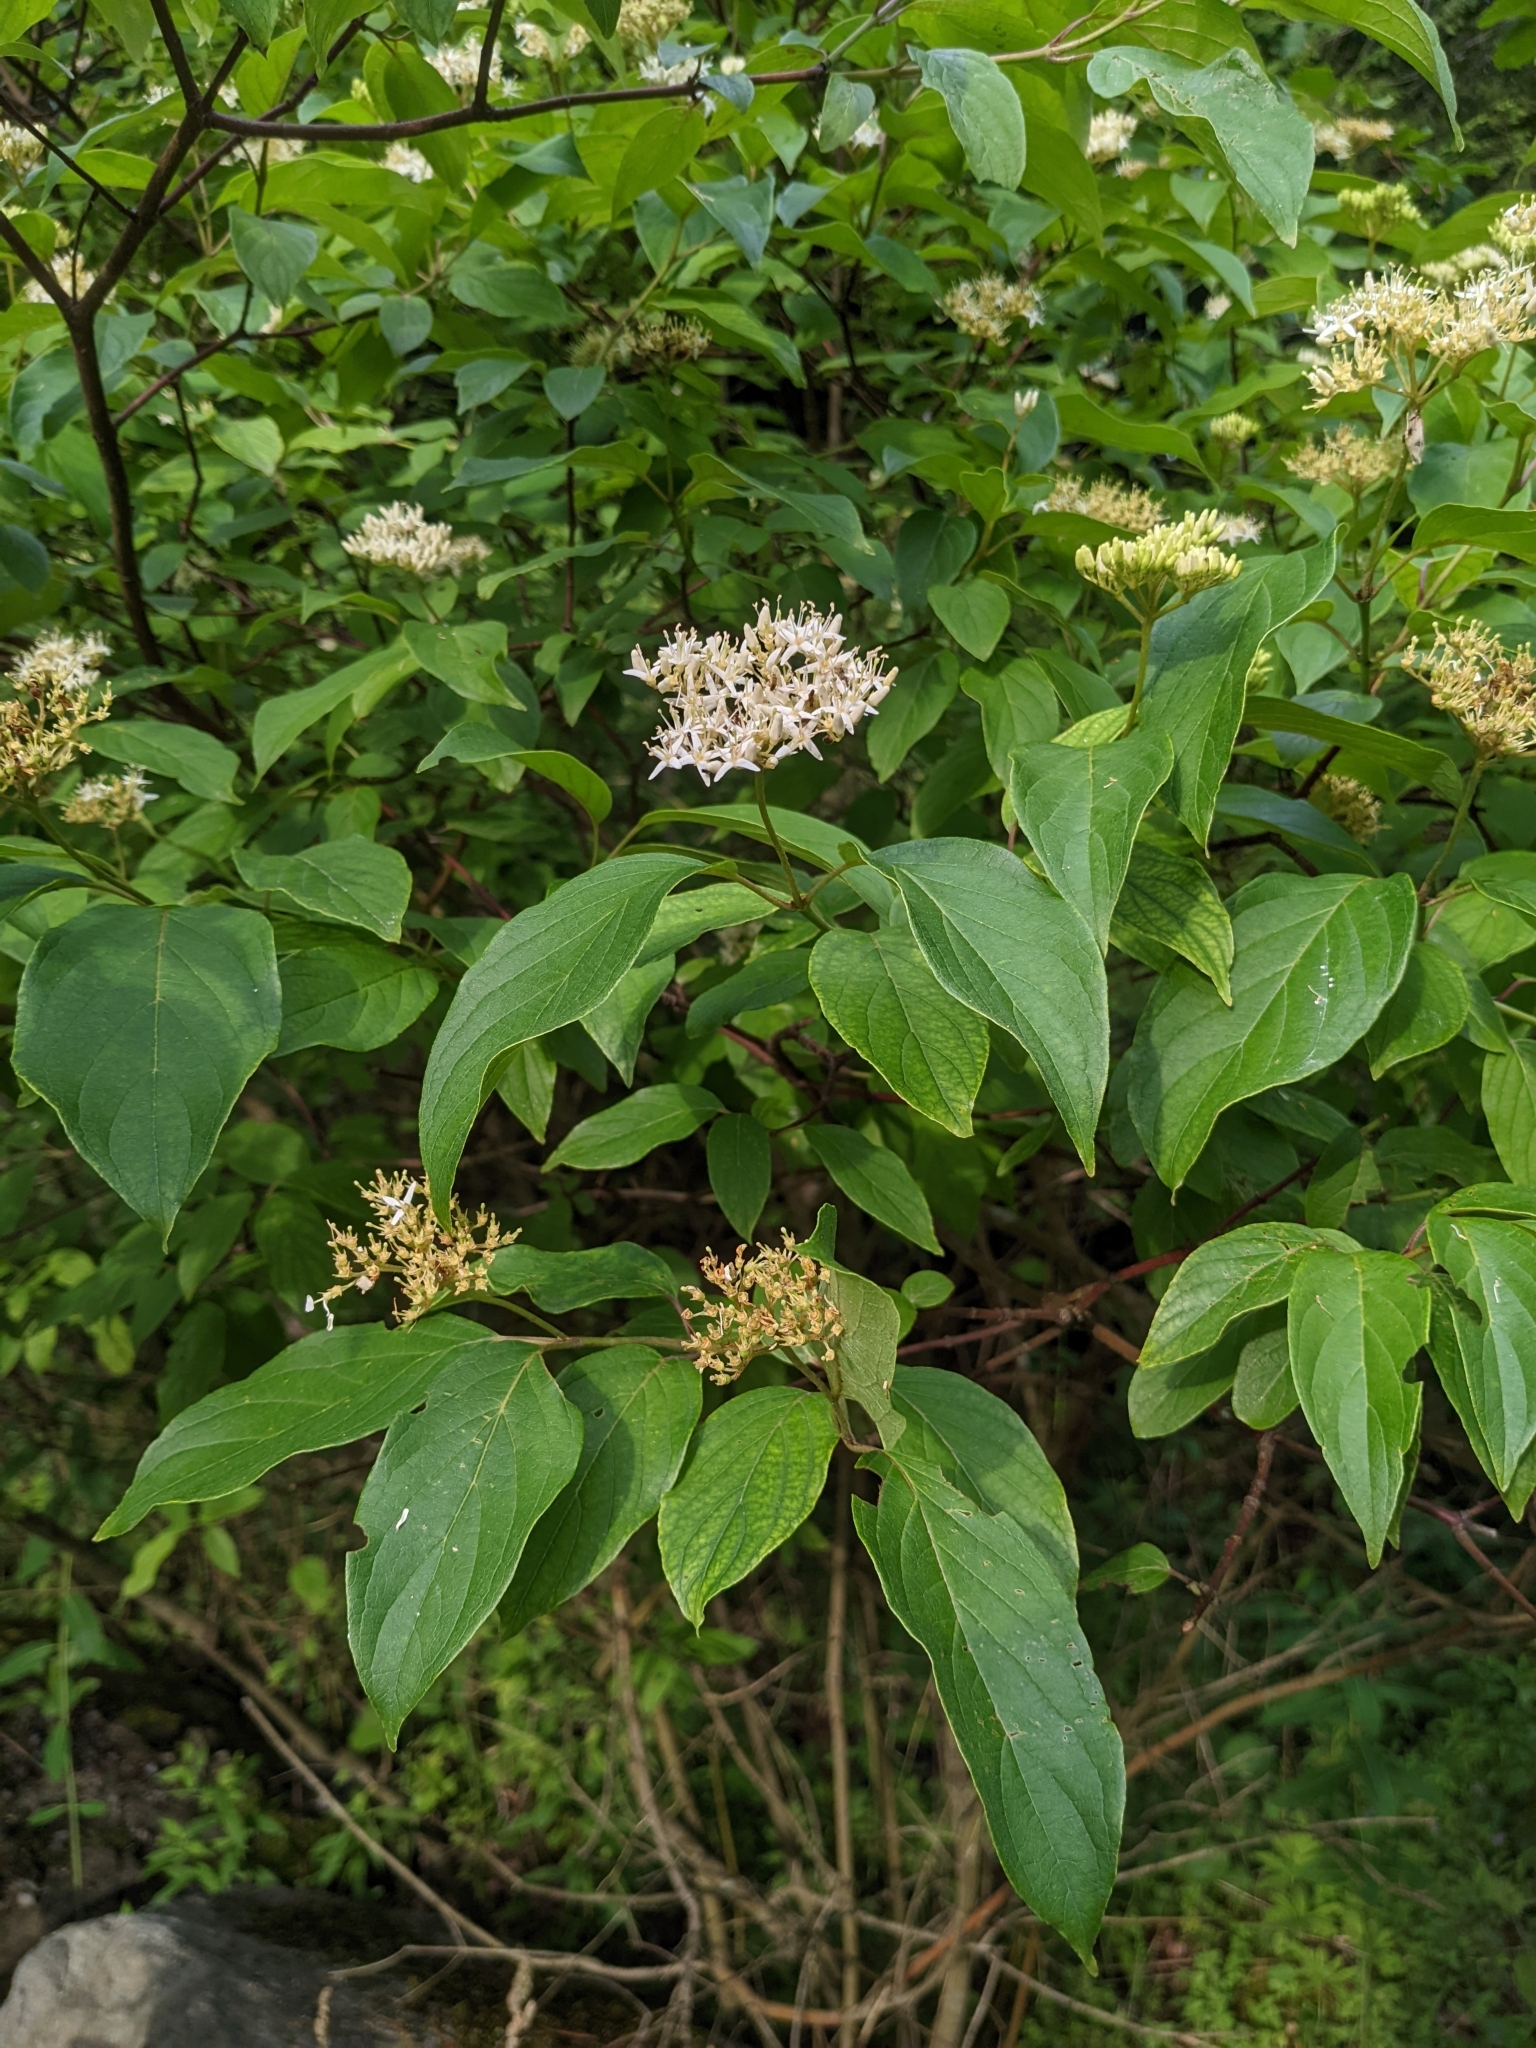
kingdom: Plantae
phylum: Tracheophyta
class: Magnoliopsida
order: Cornales
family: Cornaceae
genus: Cornus
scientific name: Cornus amomum
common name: Silky dogwood
